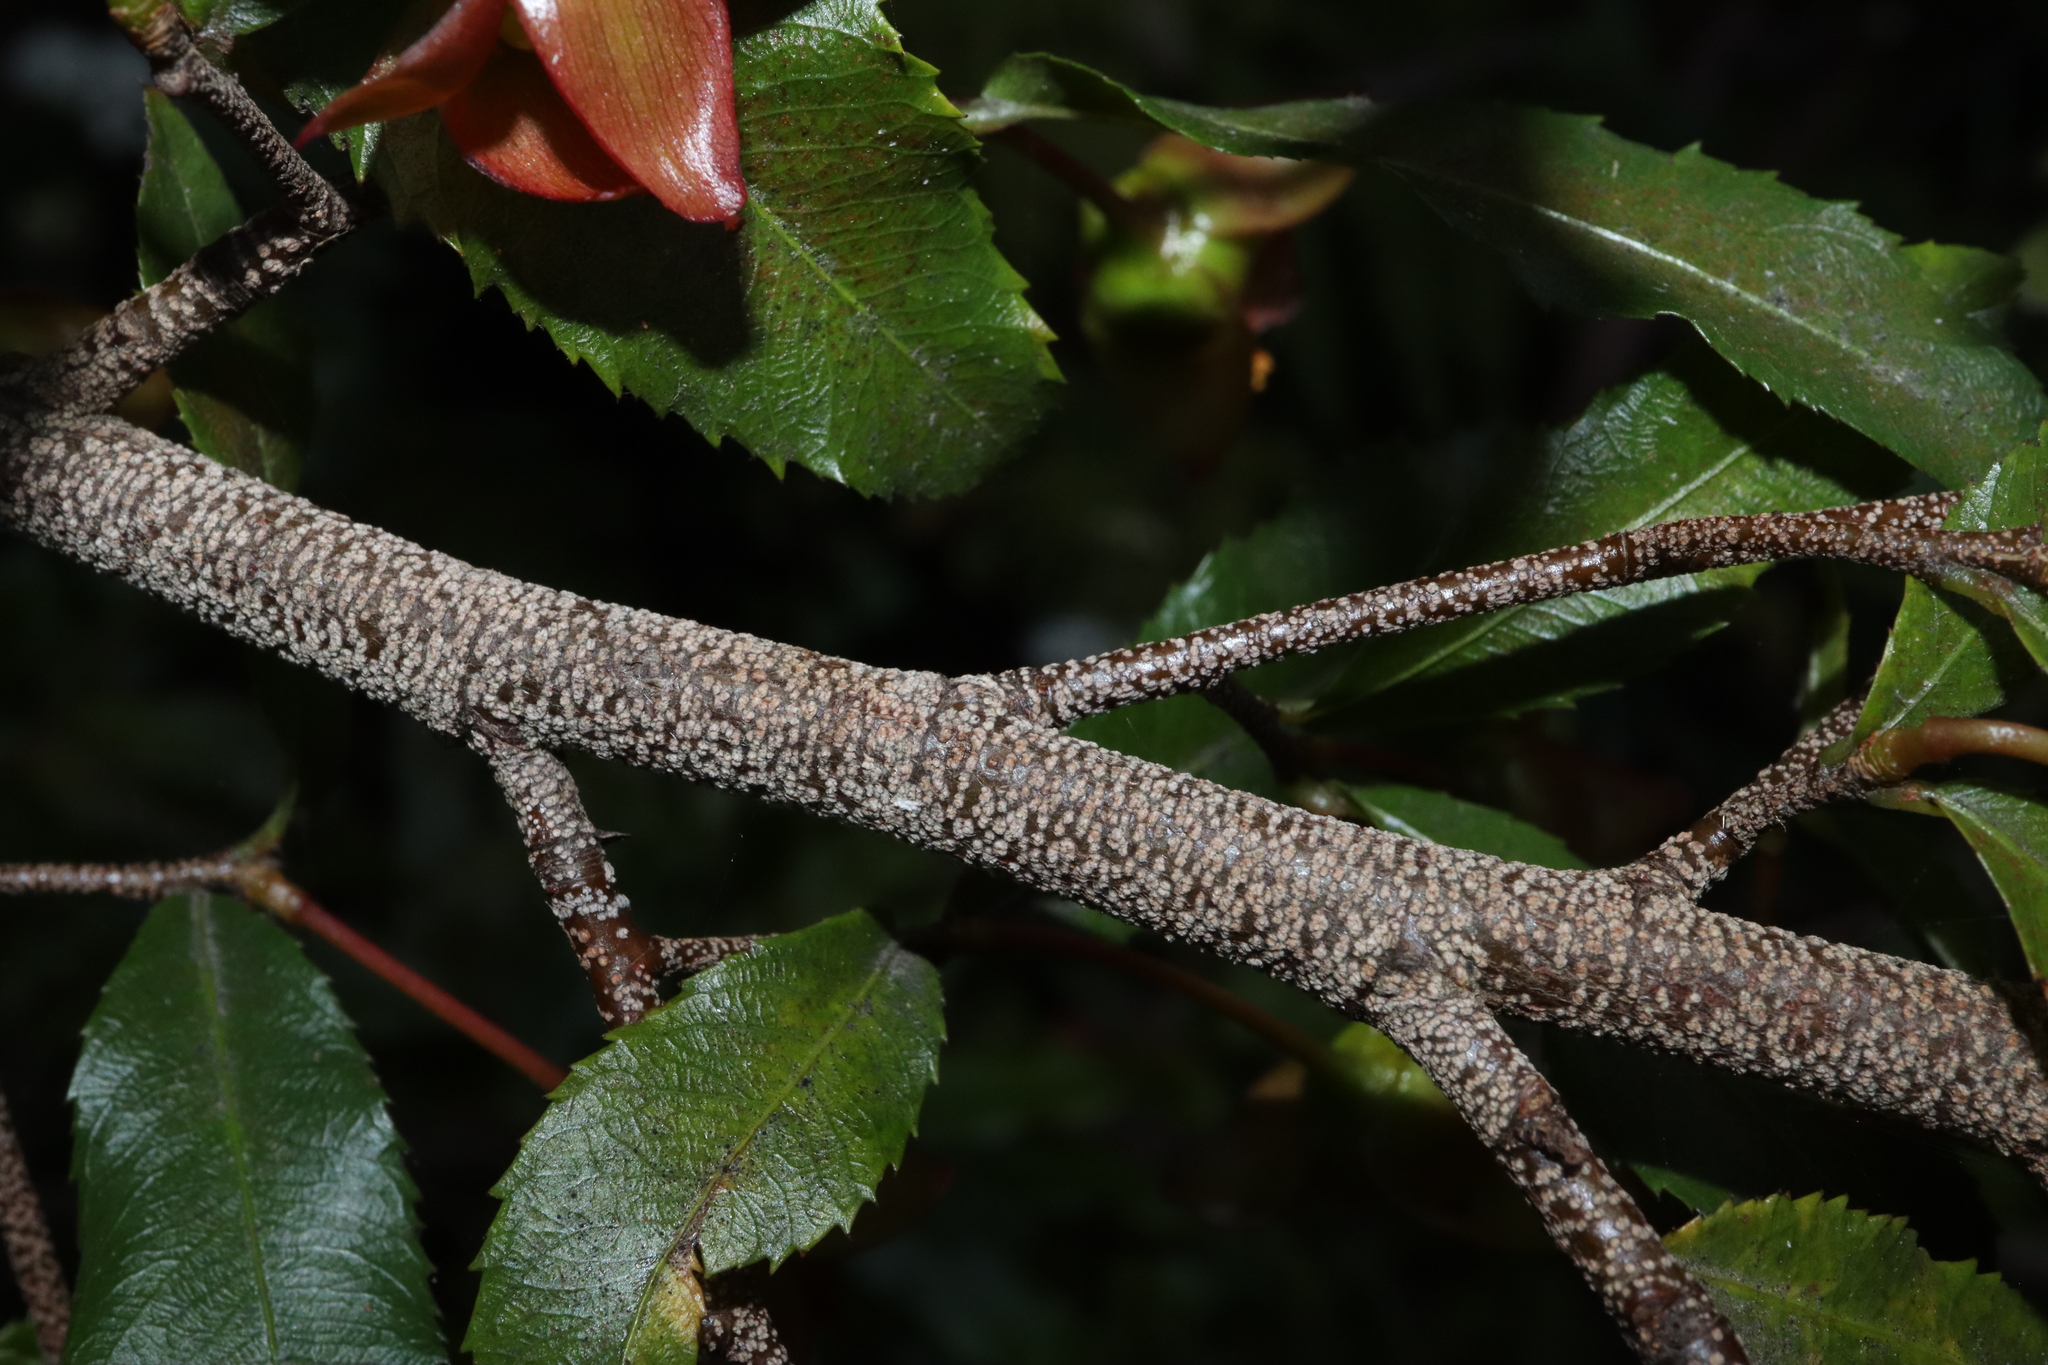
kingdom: Plantae
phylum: Tracheophyta
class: Magnoliopsida
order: Malpighiales
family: Ochnaceae
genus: Ochna
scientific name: Ochna serrulata
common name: Mickey mouse plant
